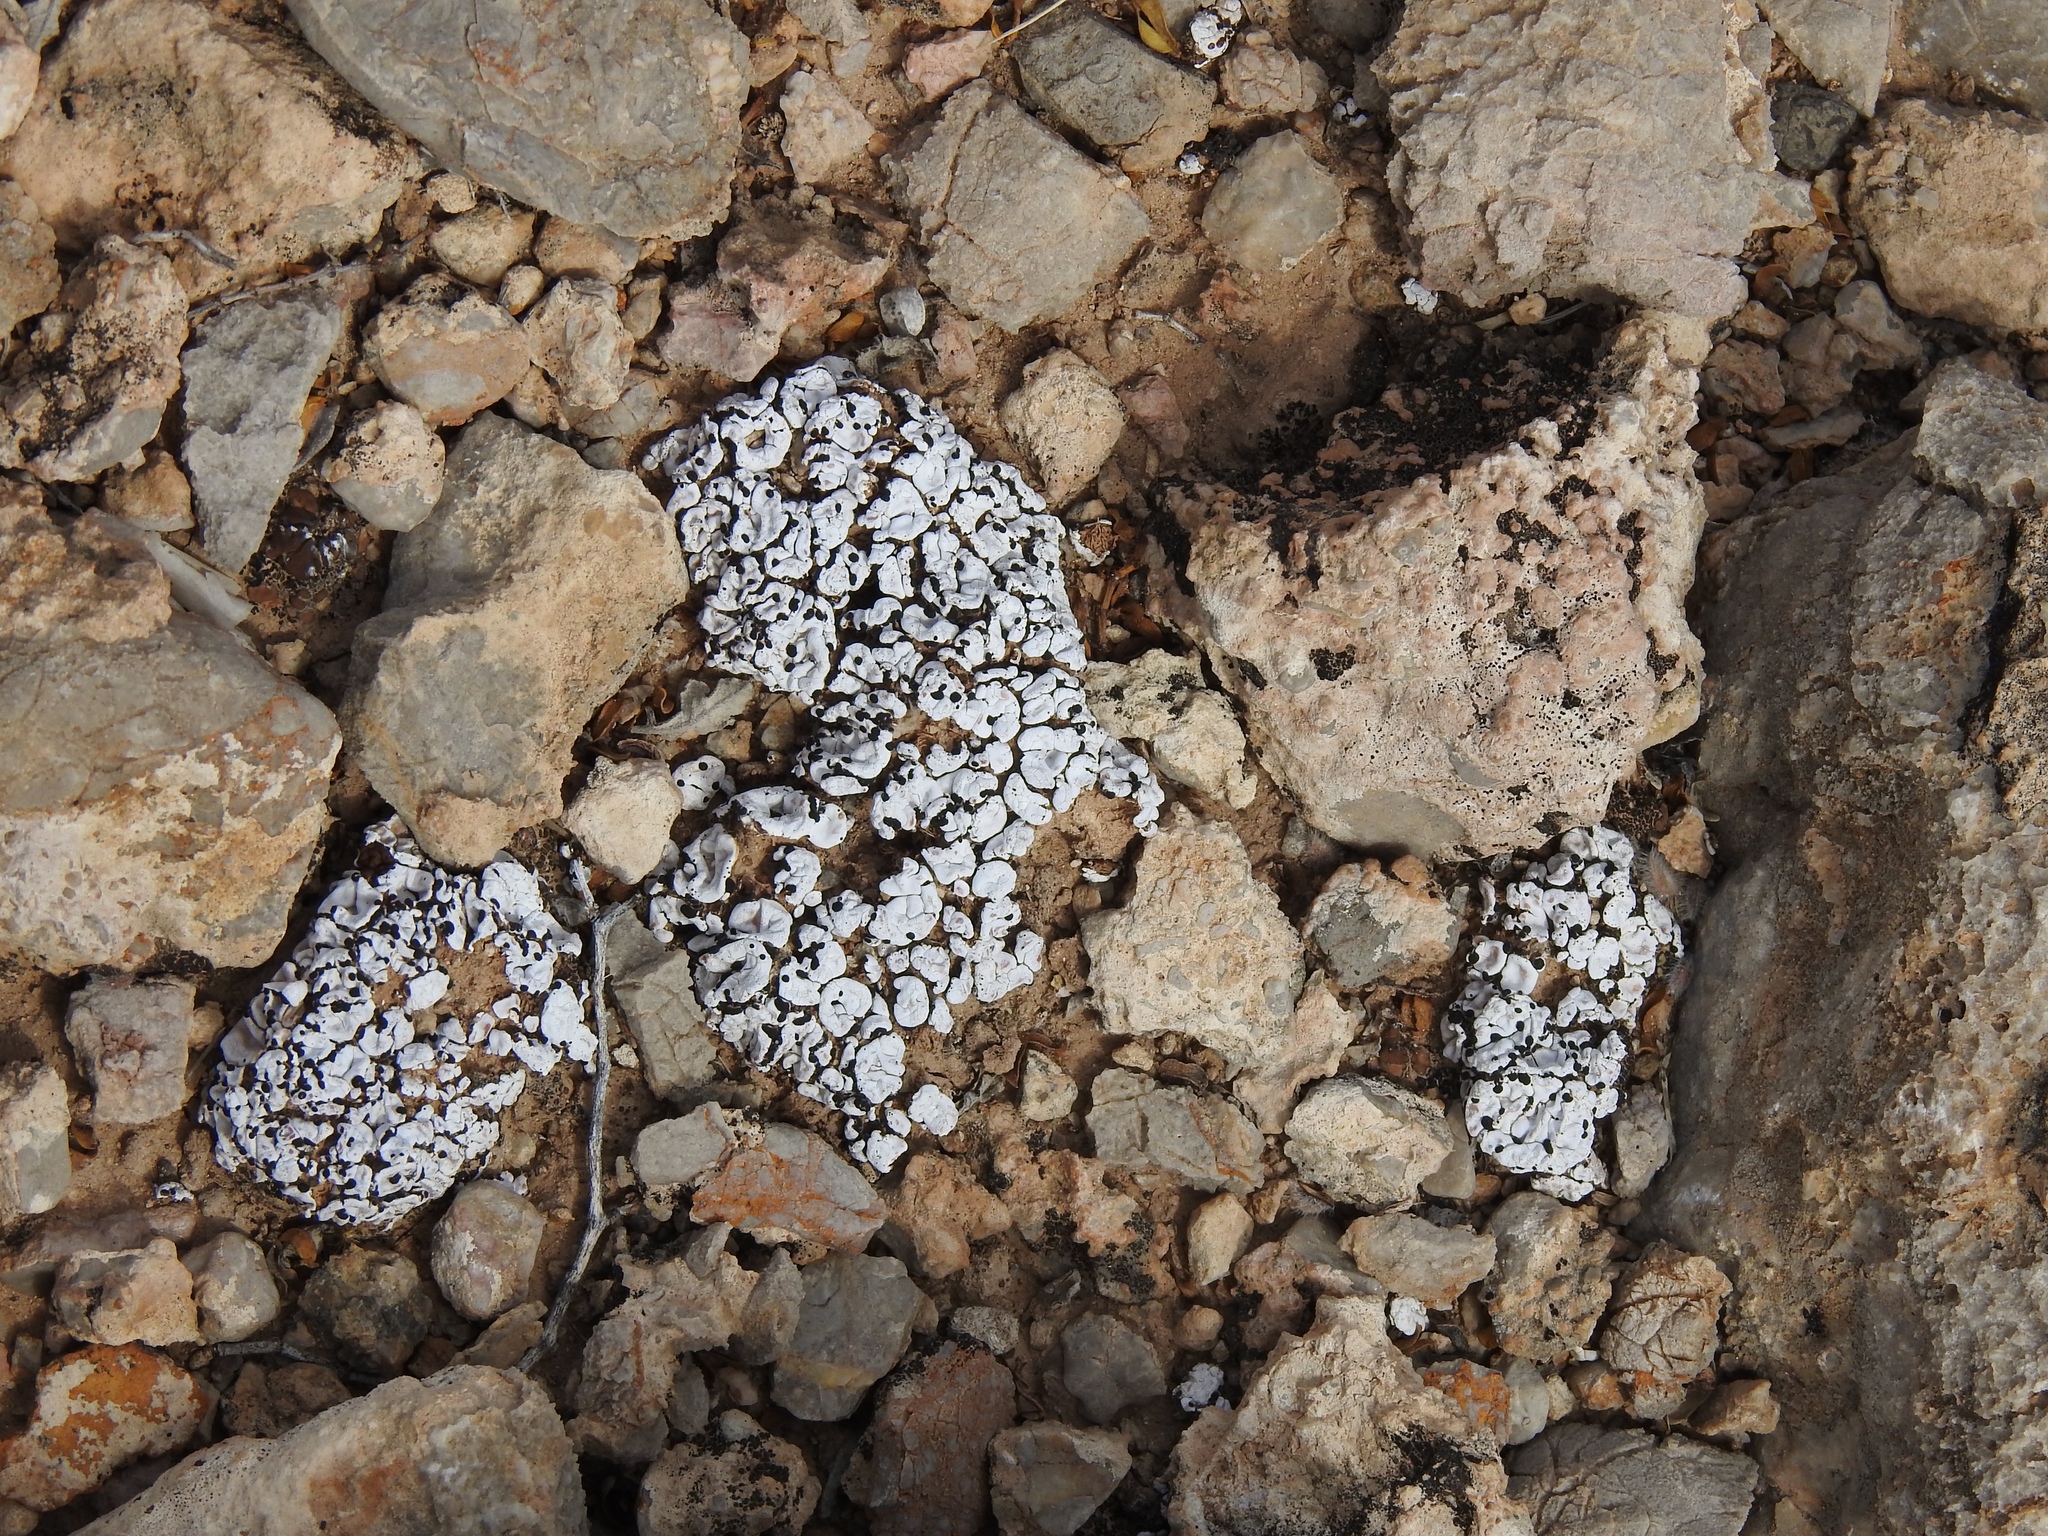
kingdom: Fungi
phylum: Ascomycota
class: Lecanoromycetes
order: Lecanorales
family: Psoraceae
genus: Psora
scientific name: Psora cerebriformis
